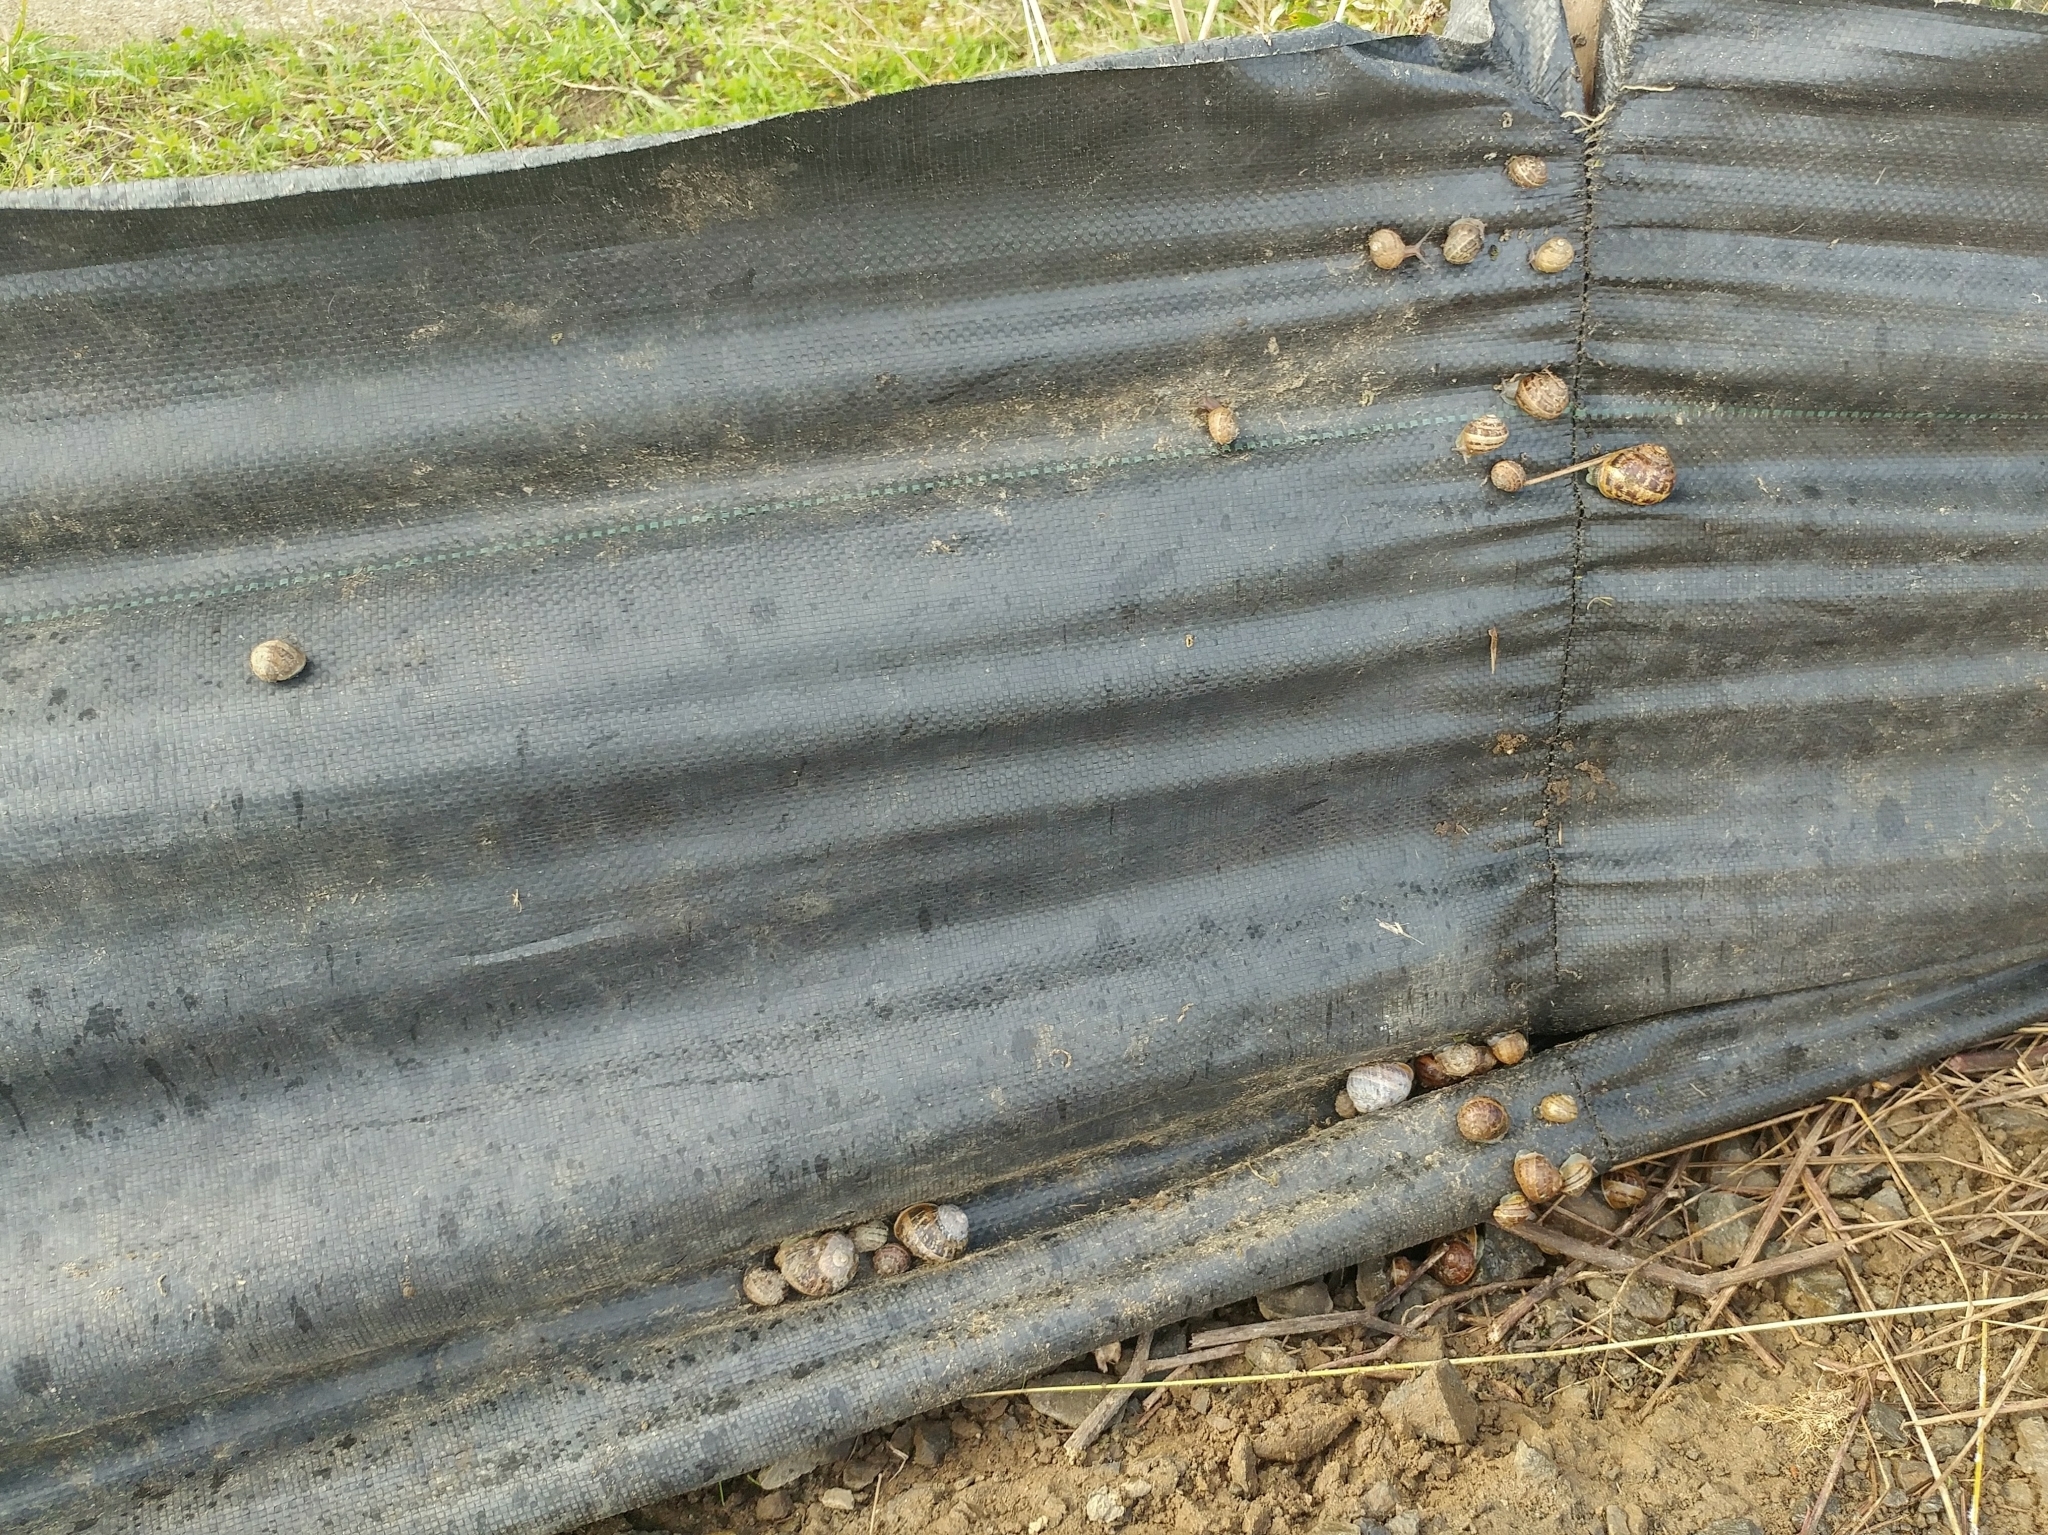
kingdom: Animalia
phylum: Mollusca
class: Gastropoda
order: Stylommatophora
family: Helicidae
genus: Cornu
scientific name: Cornu aspersum
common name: Brown garden snail
